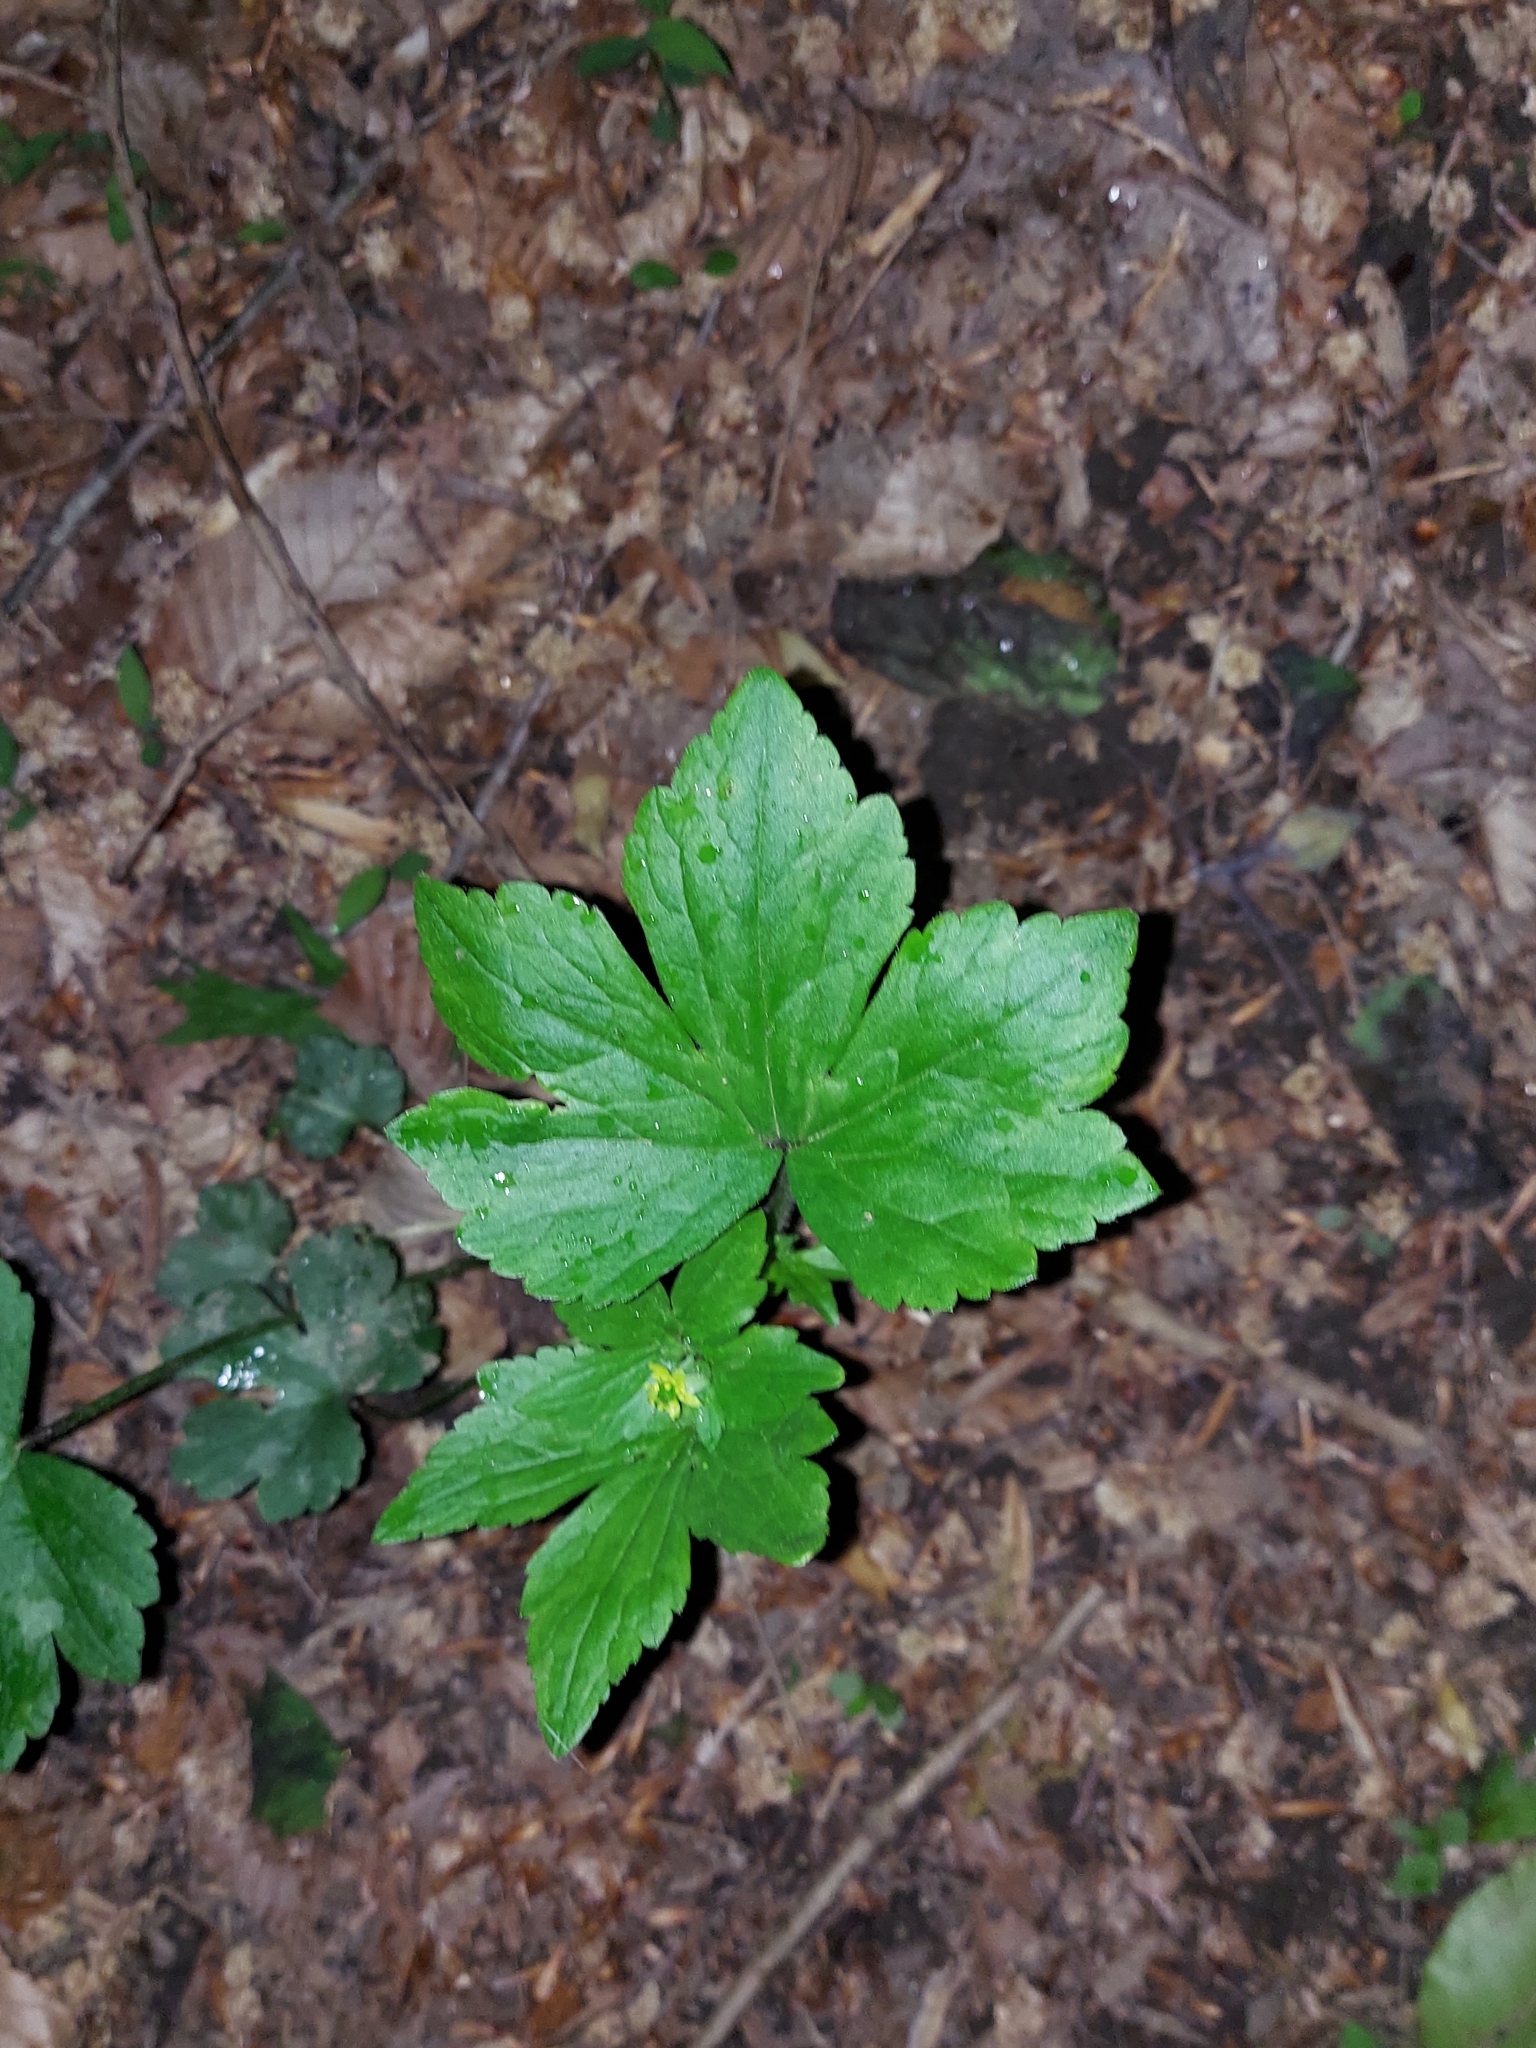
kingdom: Plantae
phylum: Tracheophyta
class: Magnoliopsida
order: Ranunculales
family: Ranunculaceae
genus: Ranunculus
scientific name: Ranunculus recurvatus
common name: Blisterwort
